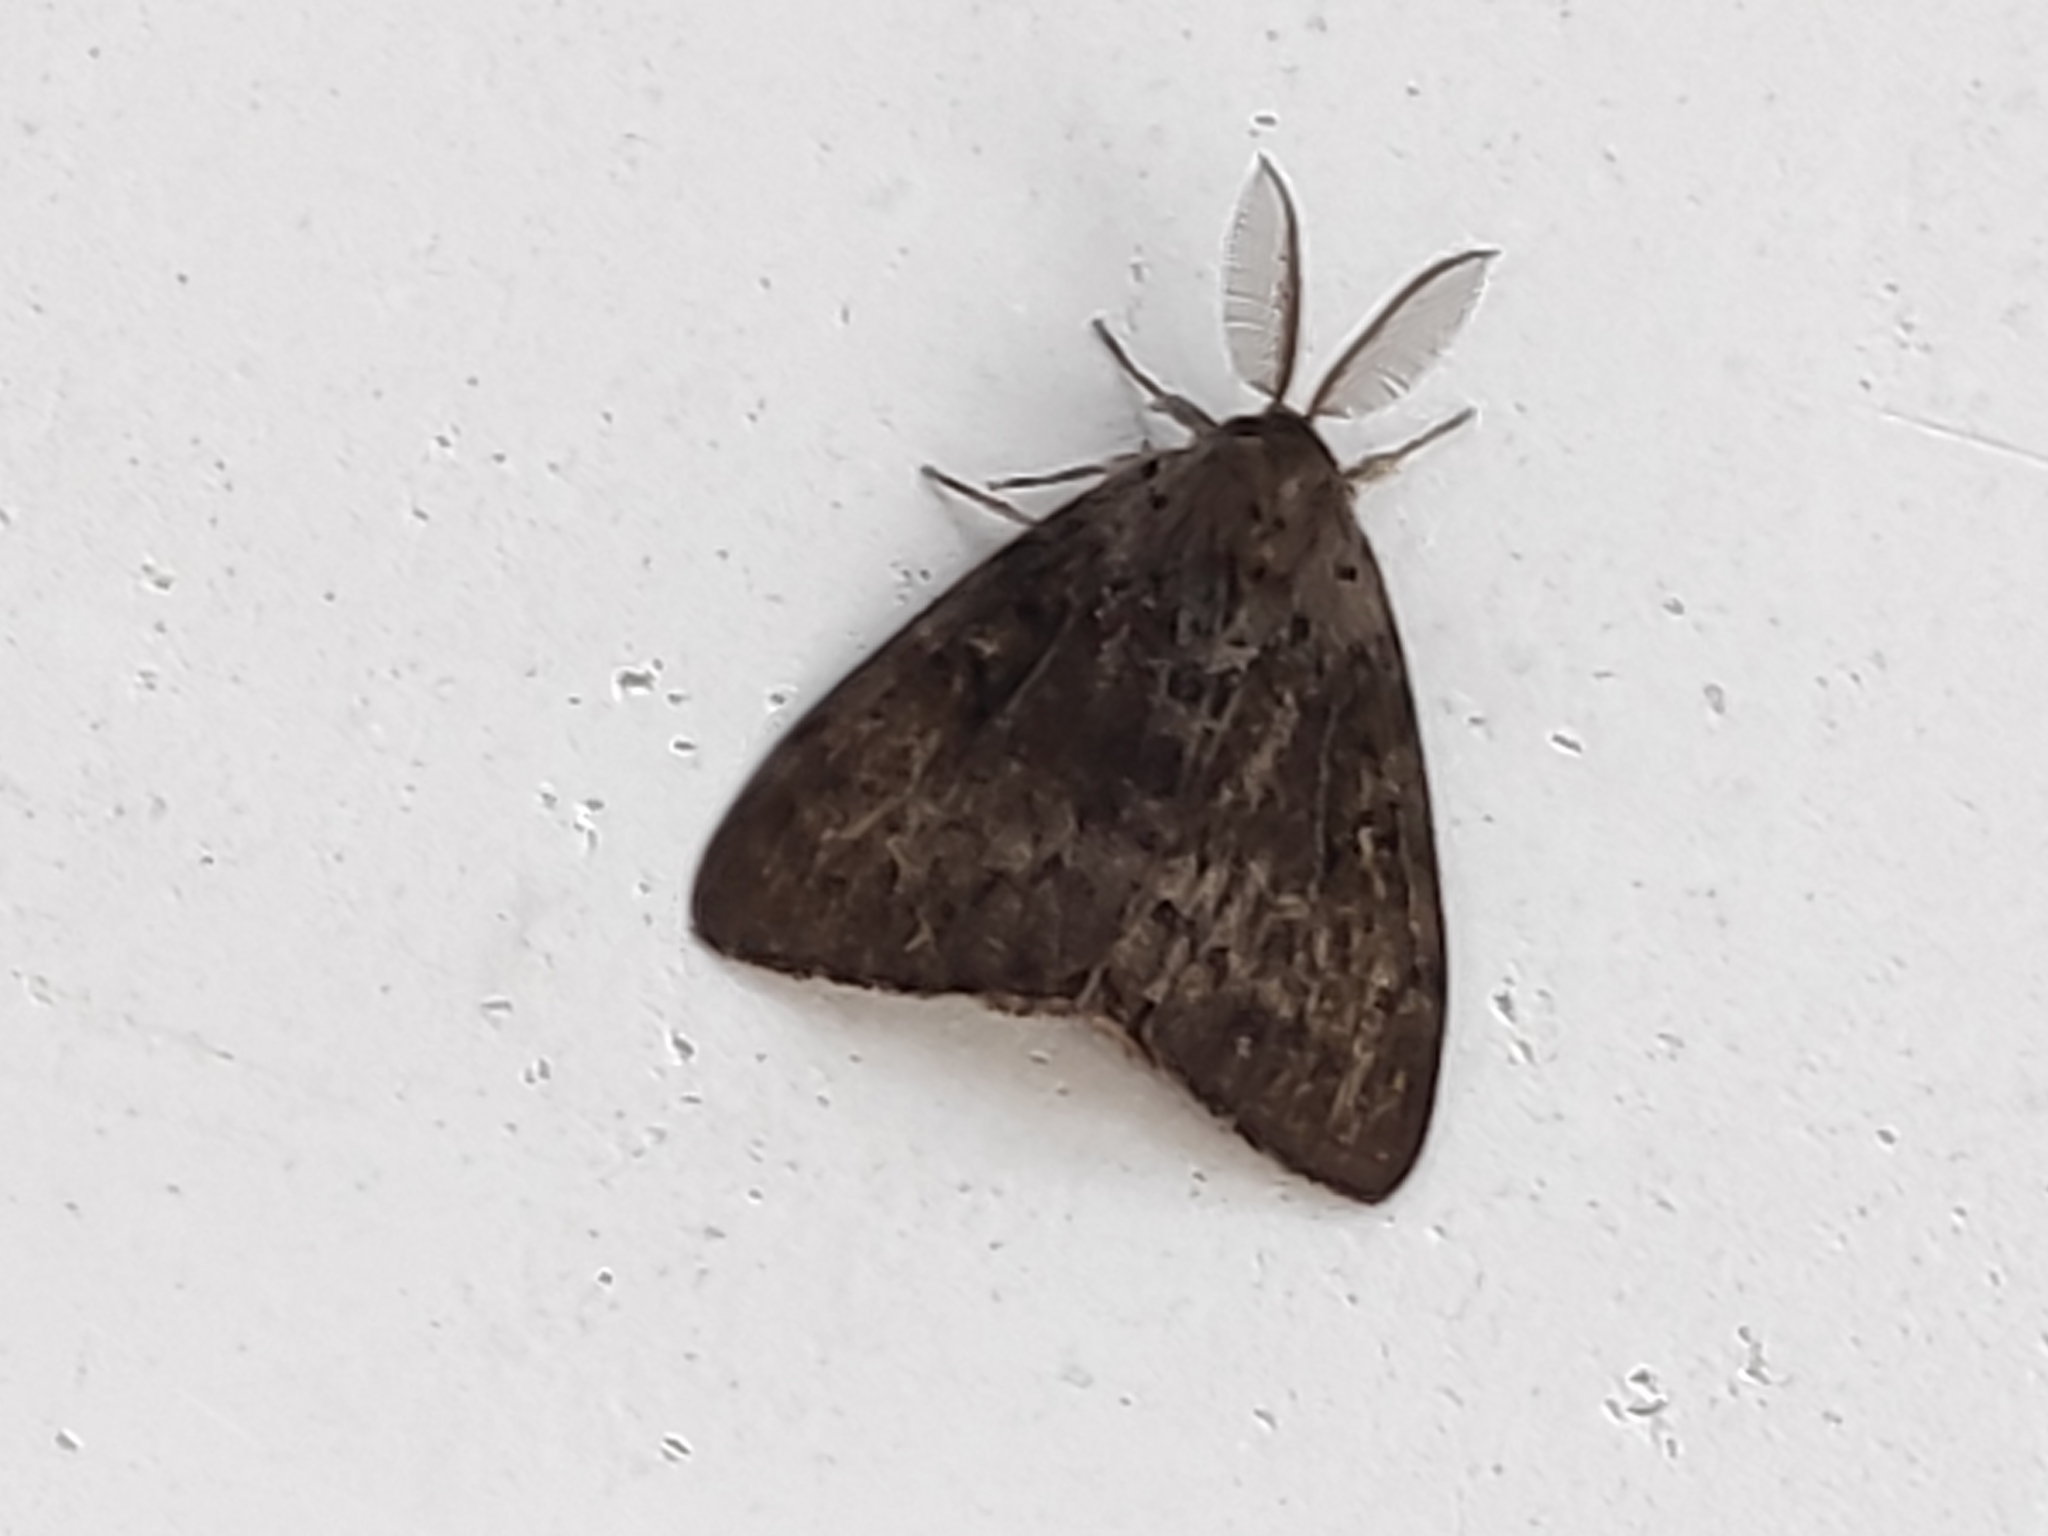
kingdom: Animalia
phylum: Arthropoda
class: Insecta
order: Lepidoptera
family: Erebidae
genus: Lymantria
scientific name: Lymantria dispar
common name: Gypsy moth
